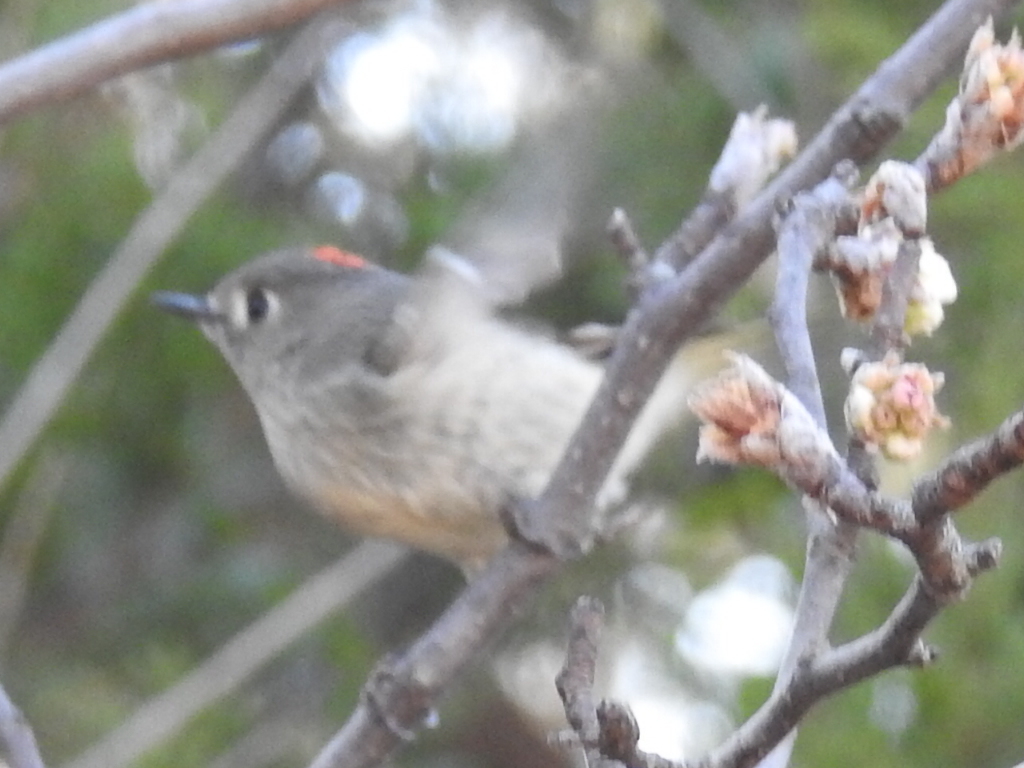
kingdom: Animalia
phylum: Chordata
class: Aves
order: Passeriformes
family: Regulidae
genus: Regulus
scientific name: Regulus calendula
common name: Ruby-crowned kinglet
